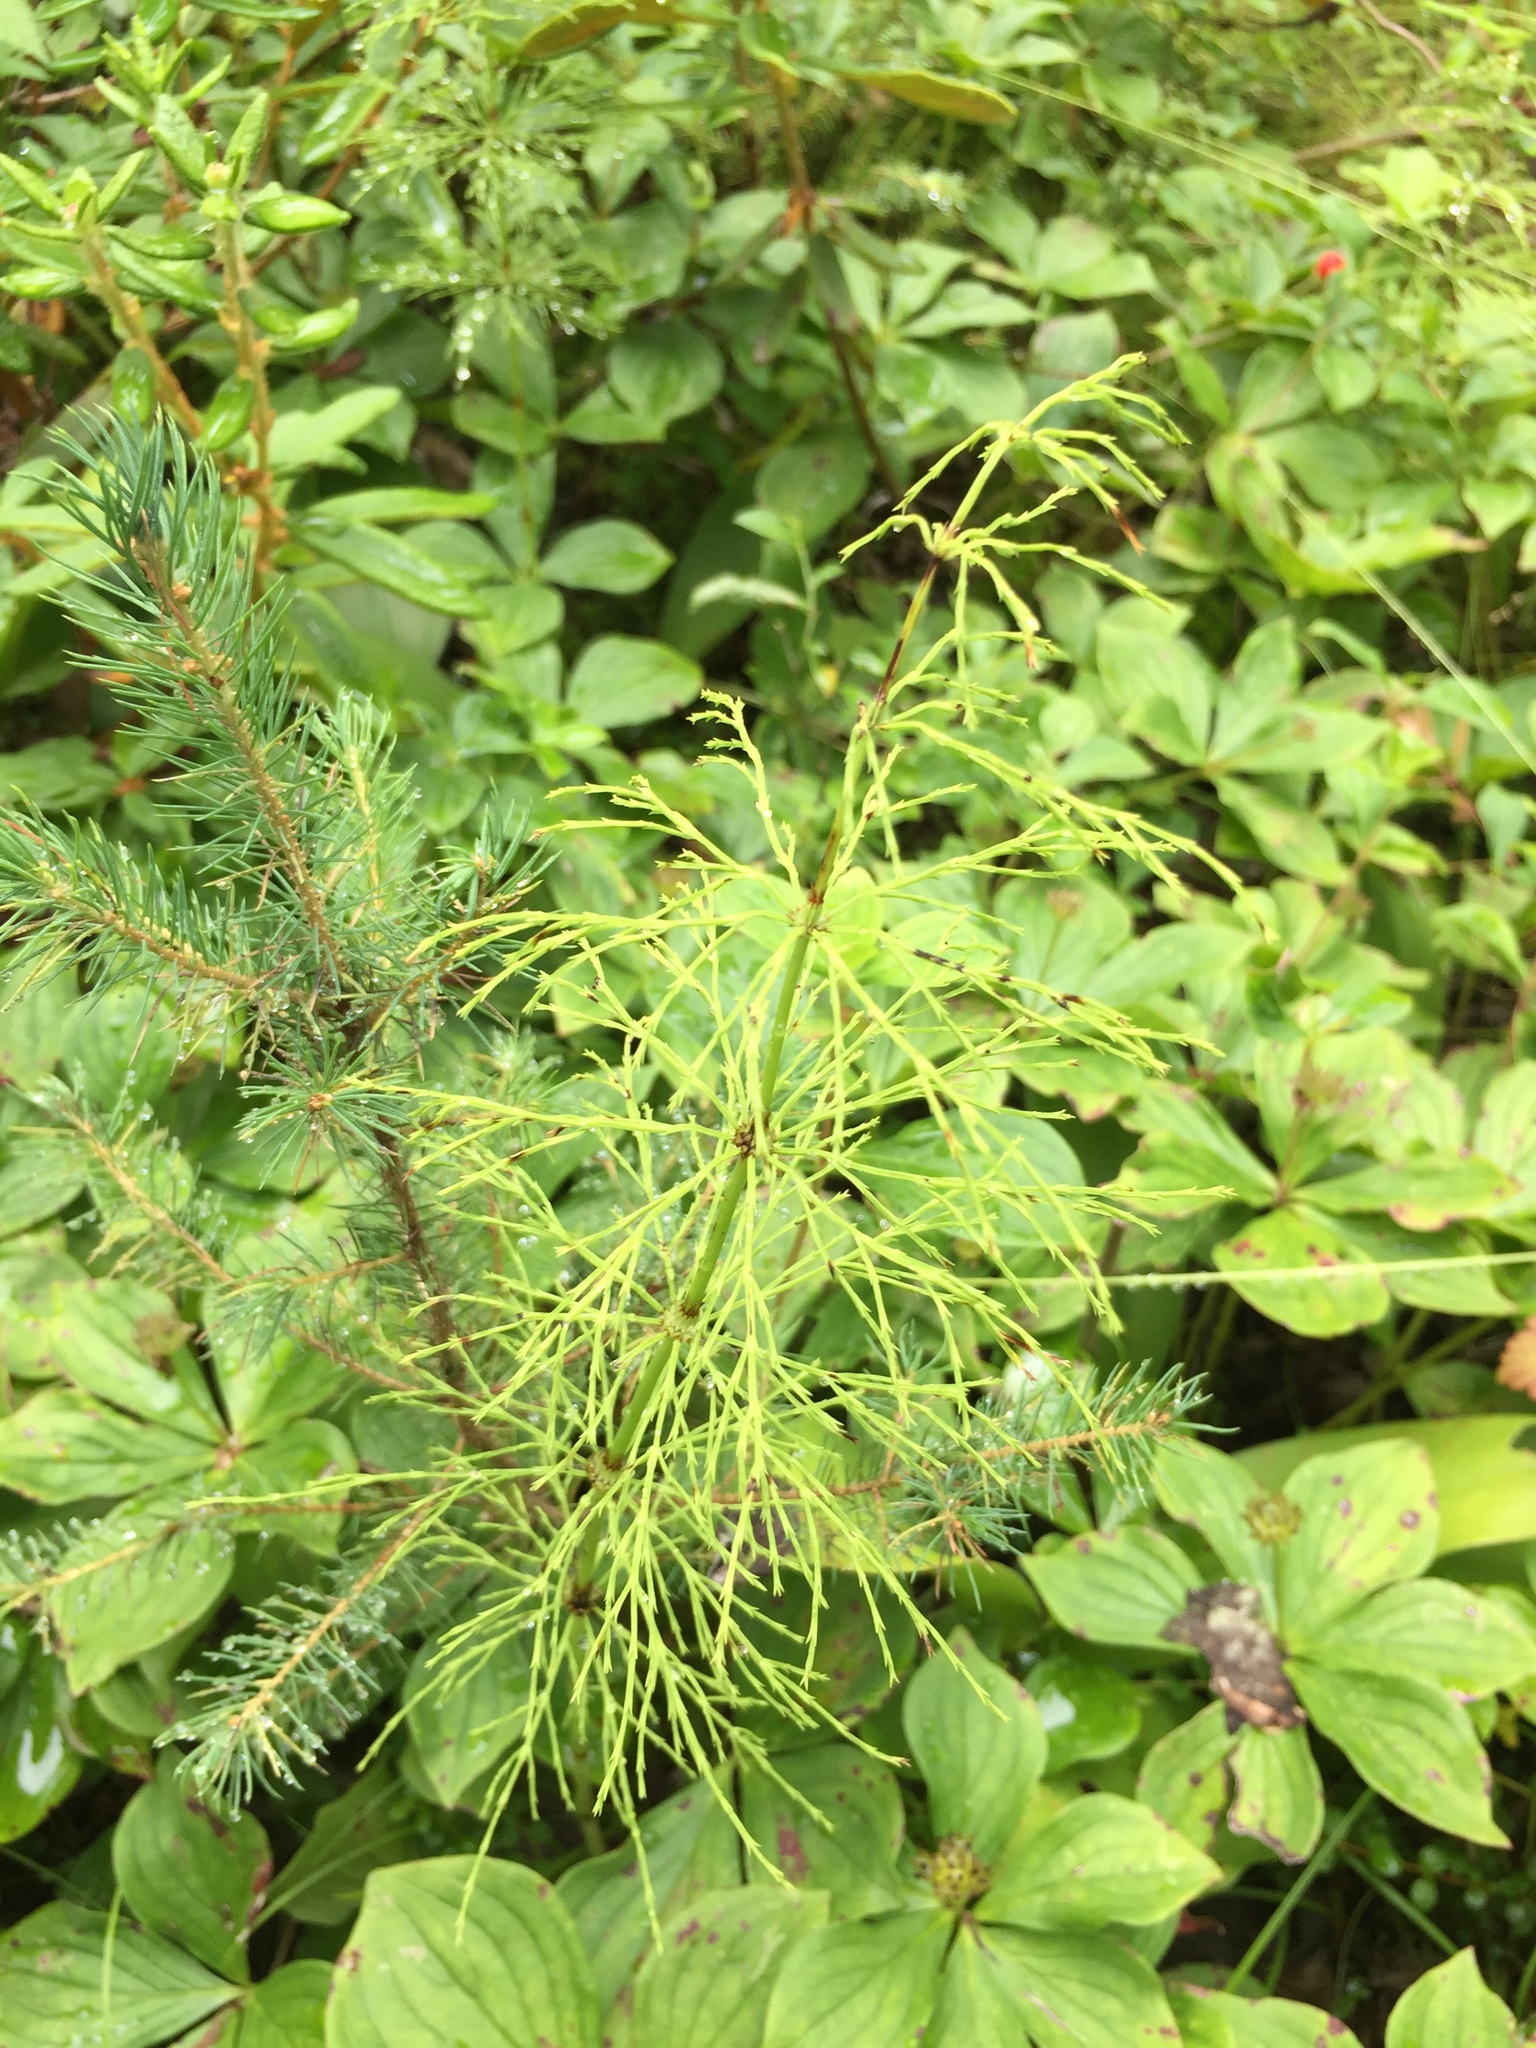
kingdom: Plantae
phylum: Tracheophyta
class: Polypodiopsida
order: Equisetales
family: Equisetaceae
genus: Equisetum
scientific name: Equisetum sylvaticum
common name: Wood horsetail
